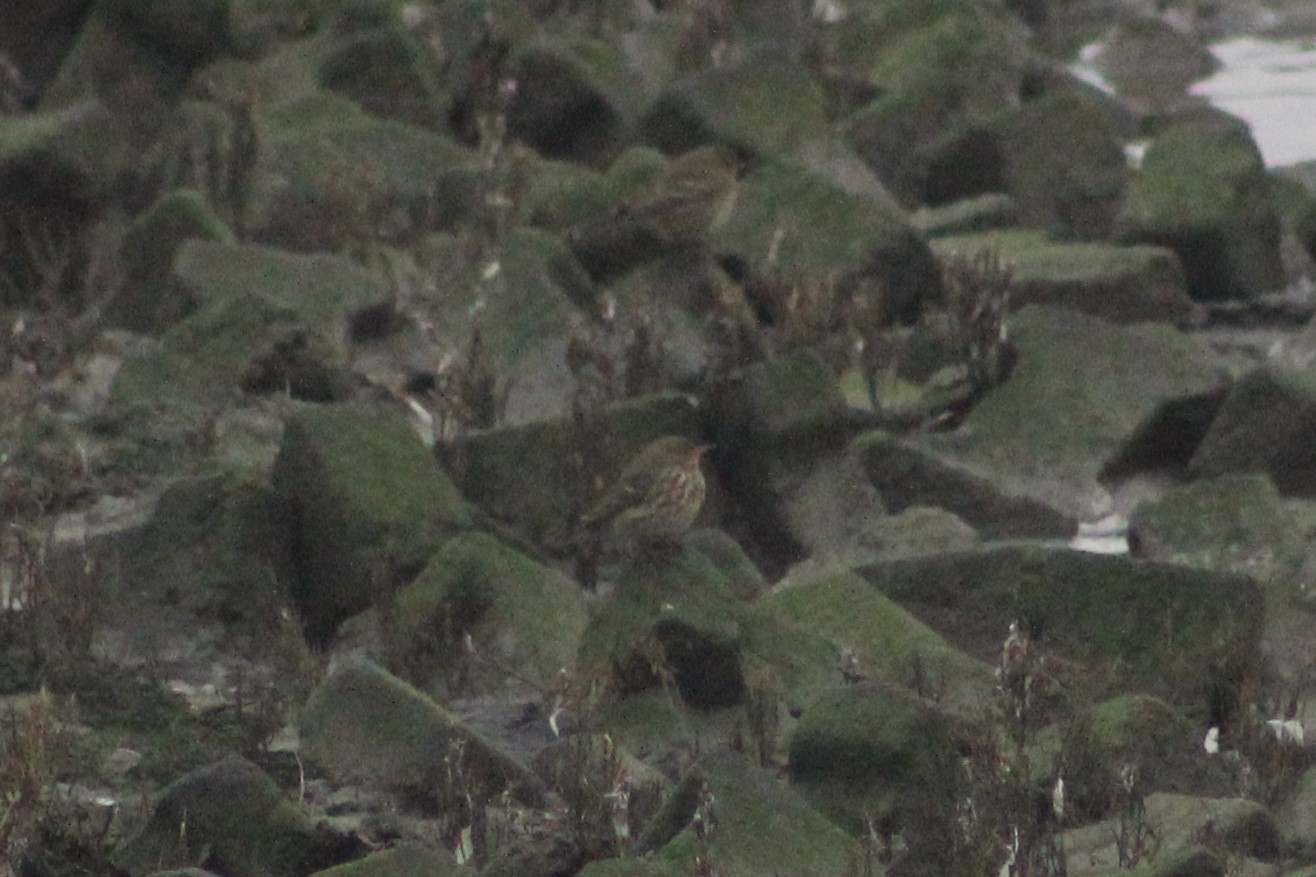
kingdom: Animalia
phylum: Chordata
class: Aves
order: Passeriformes
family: Motacillidae
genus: Anthus
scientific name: Anthus petrosus
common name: Eurasian rock pipit
